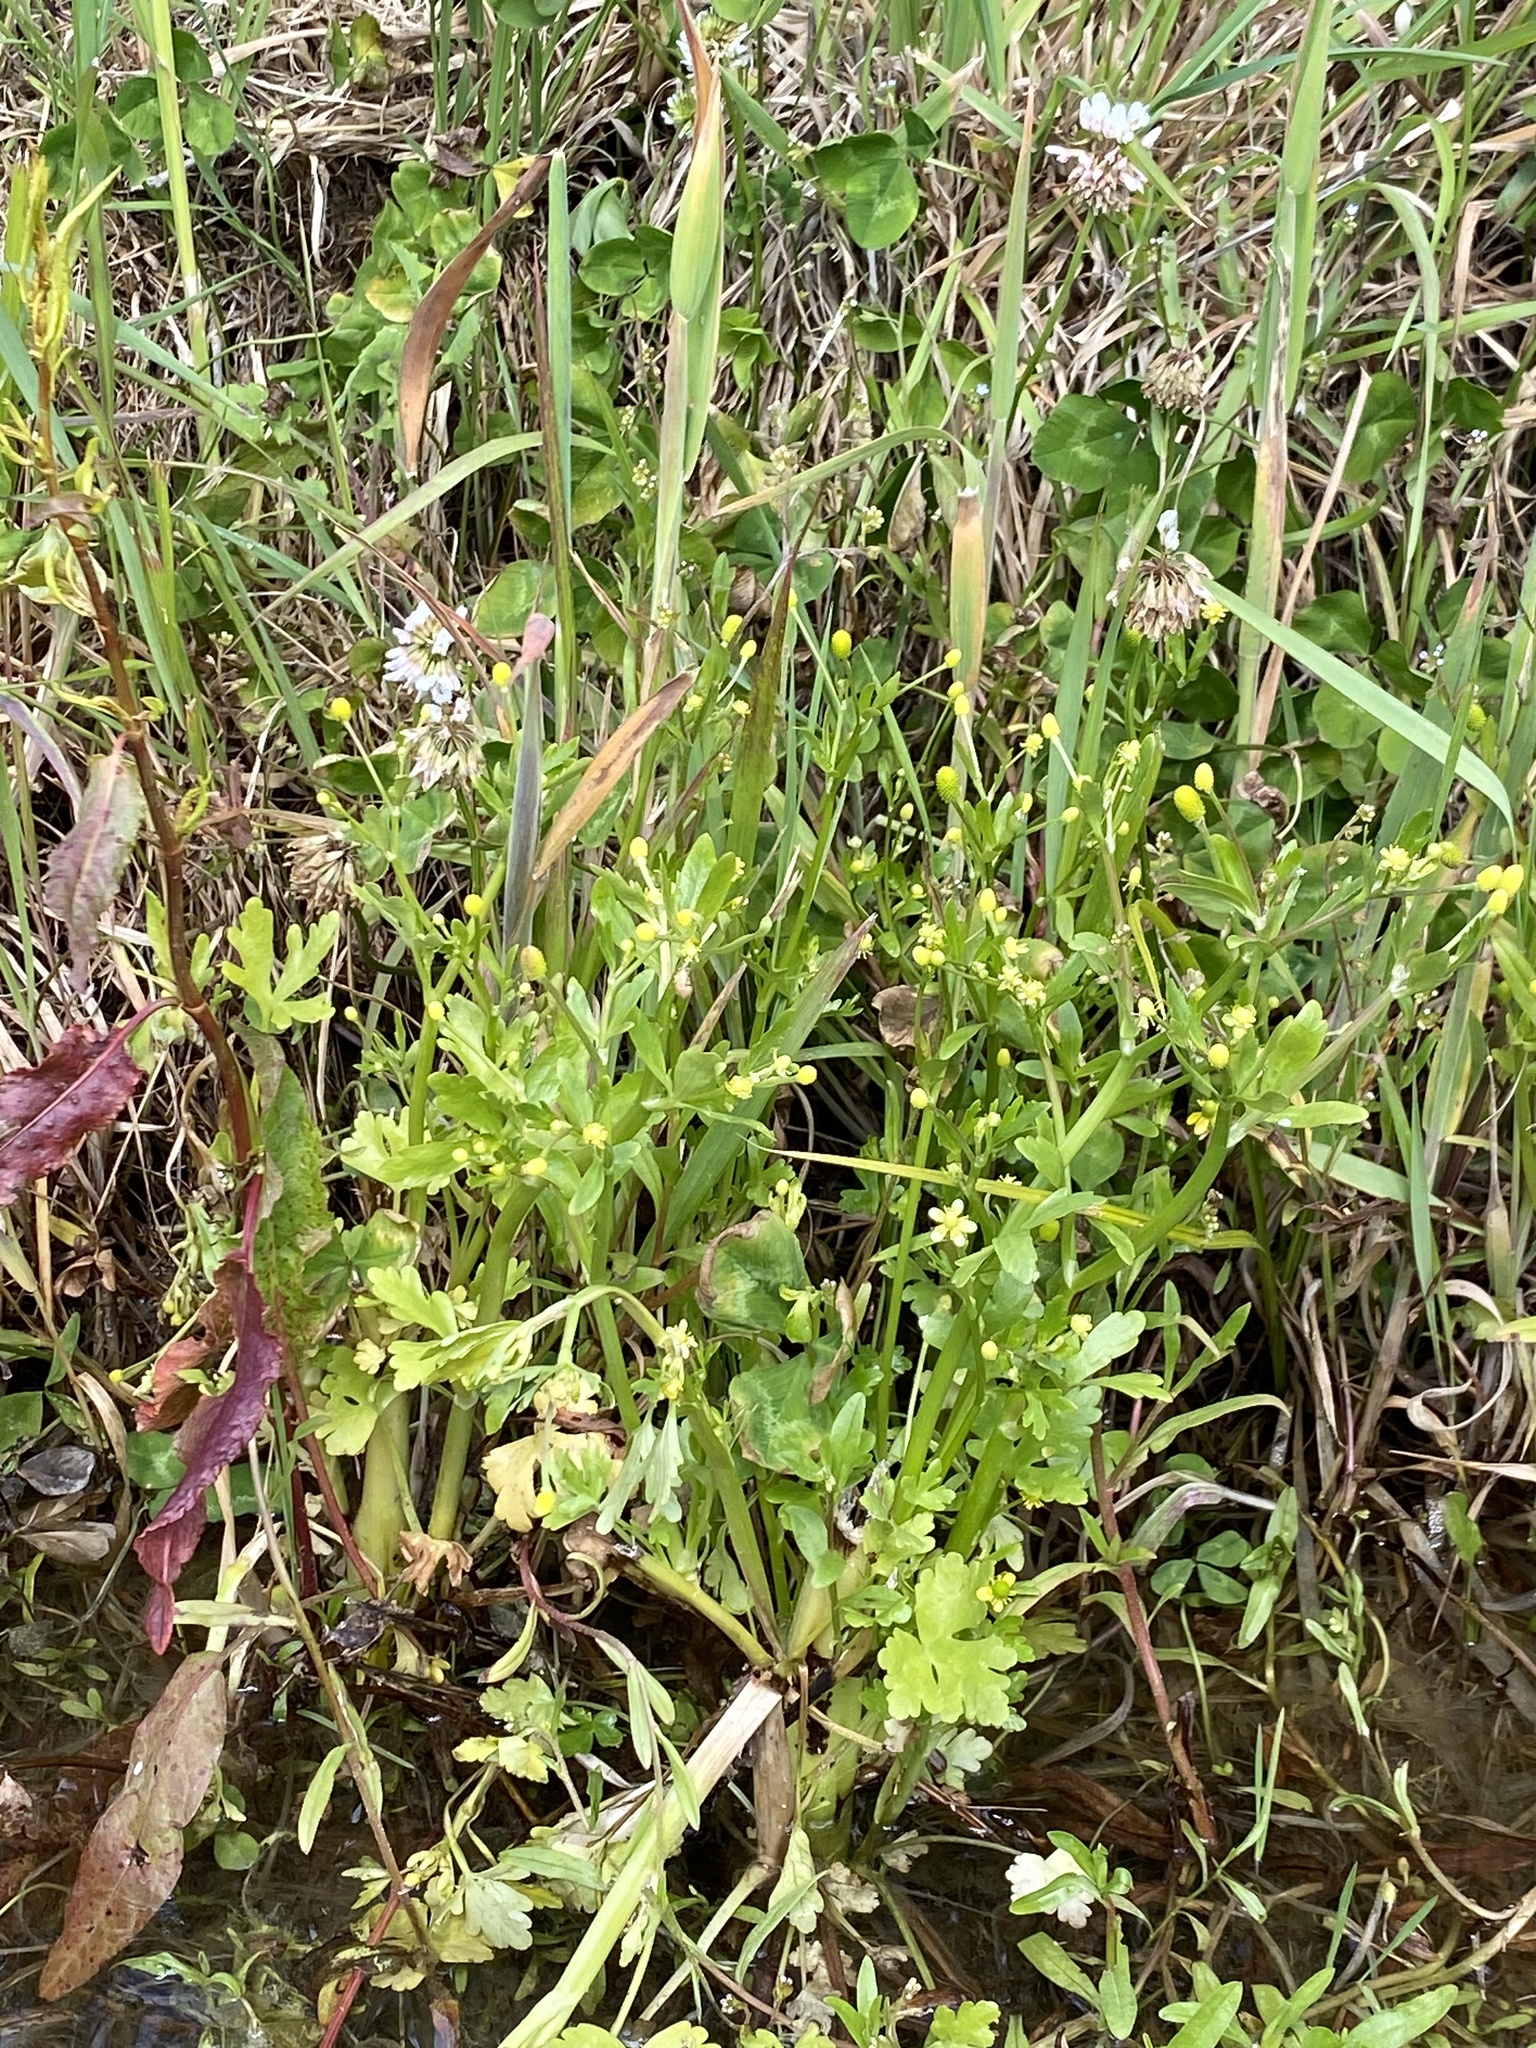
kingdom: Plantae
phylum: Tracheophyta
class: Magnoliopsida
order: Ranunculales
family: Ranunculaceae
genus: Ranunculus
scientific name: Ranunculus sceleratus
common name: Celery-leaved buttercup
